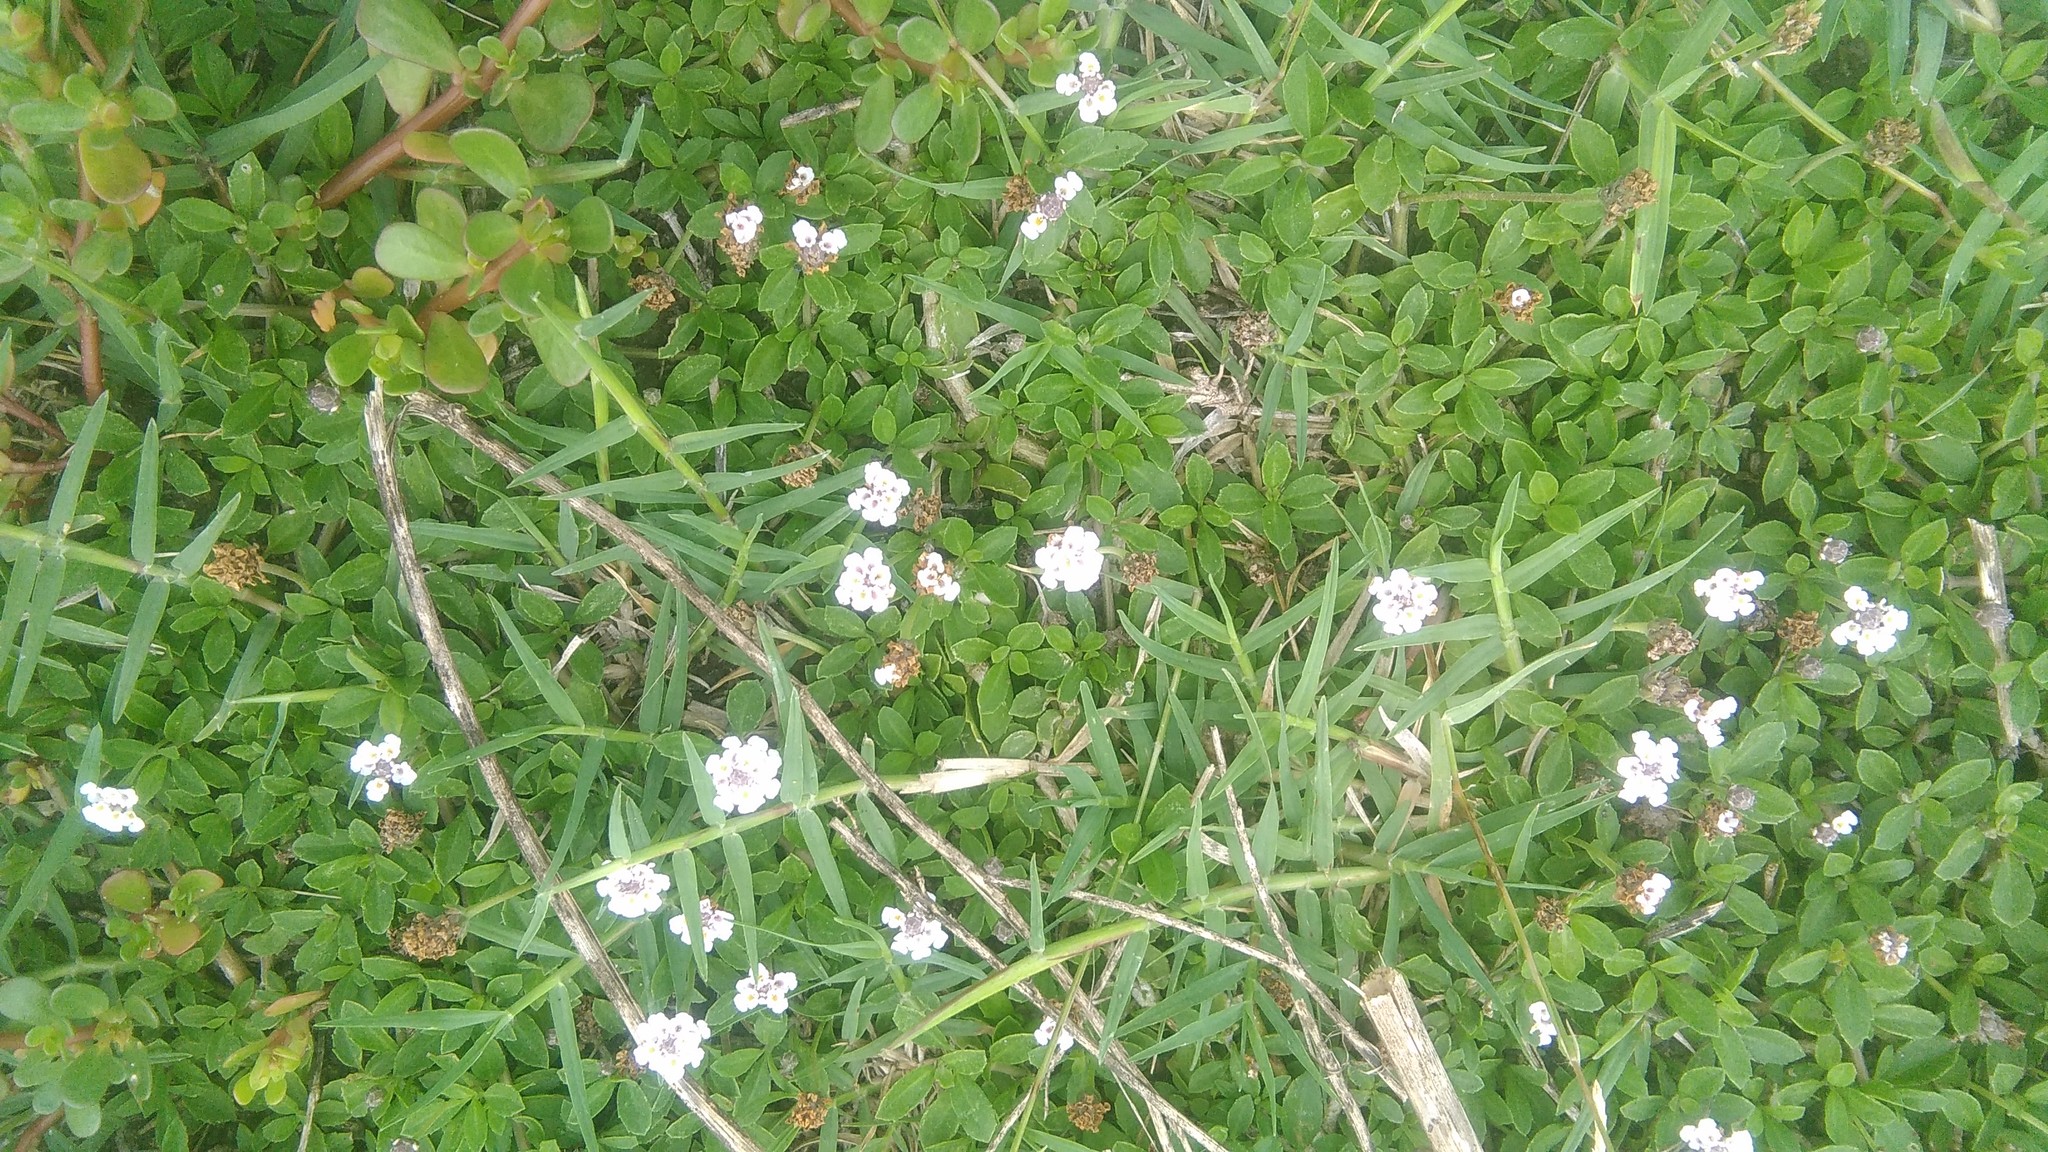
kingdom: Plantae
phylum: Tracheophyta
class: Magnoliopsida
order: Lamiales
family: Verbenaceae
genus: Phyla
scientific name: Phyla nodiflora
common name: Frogfruit
